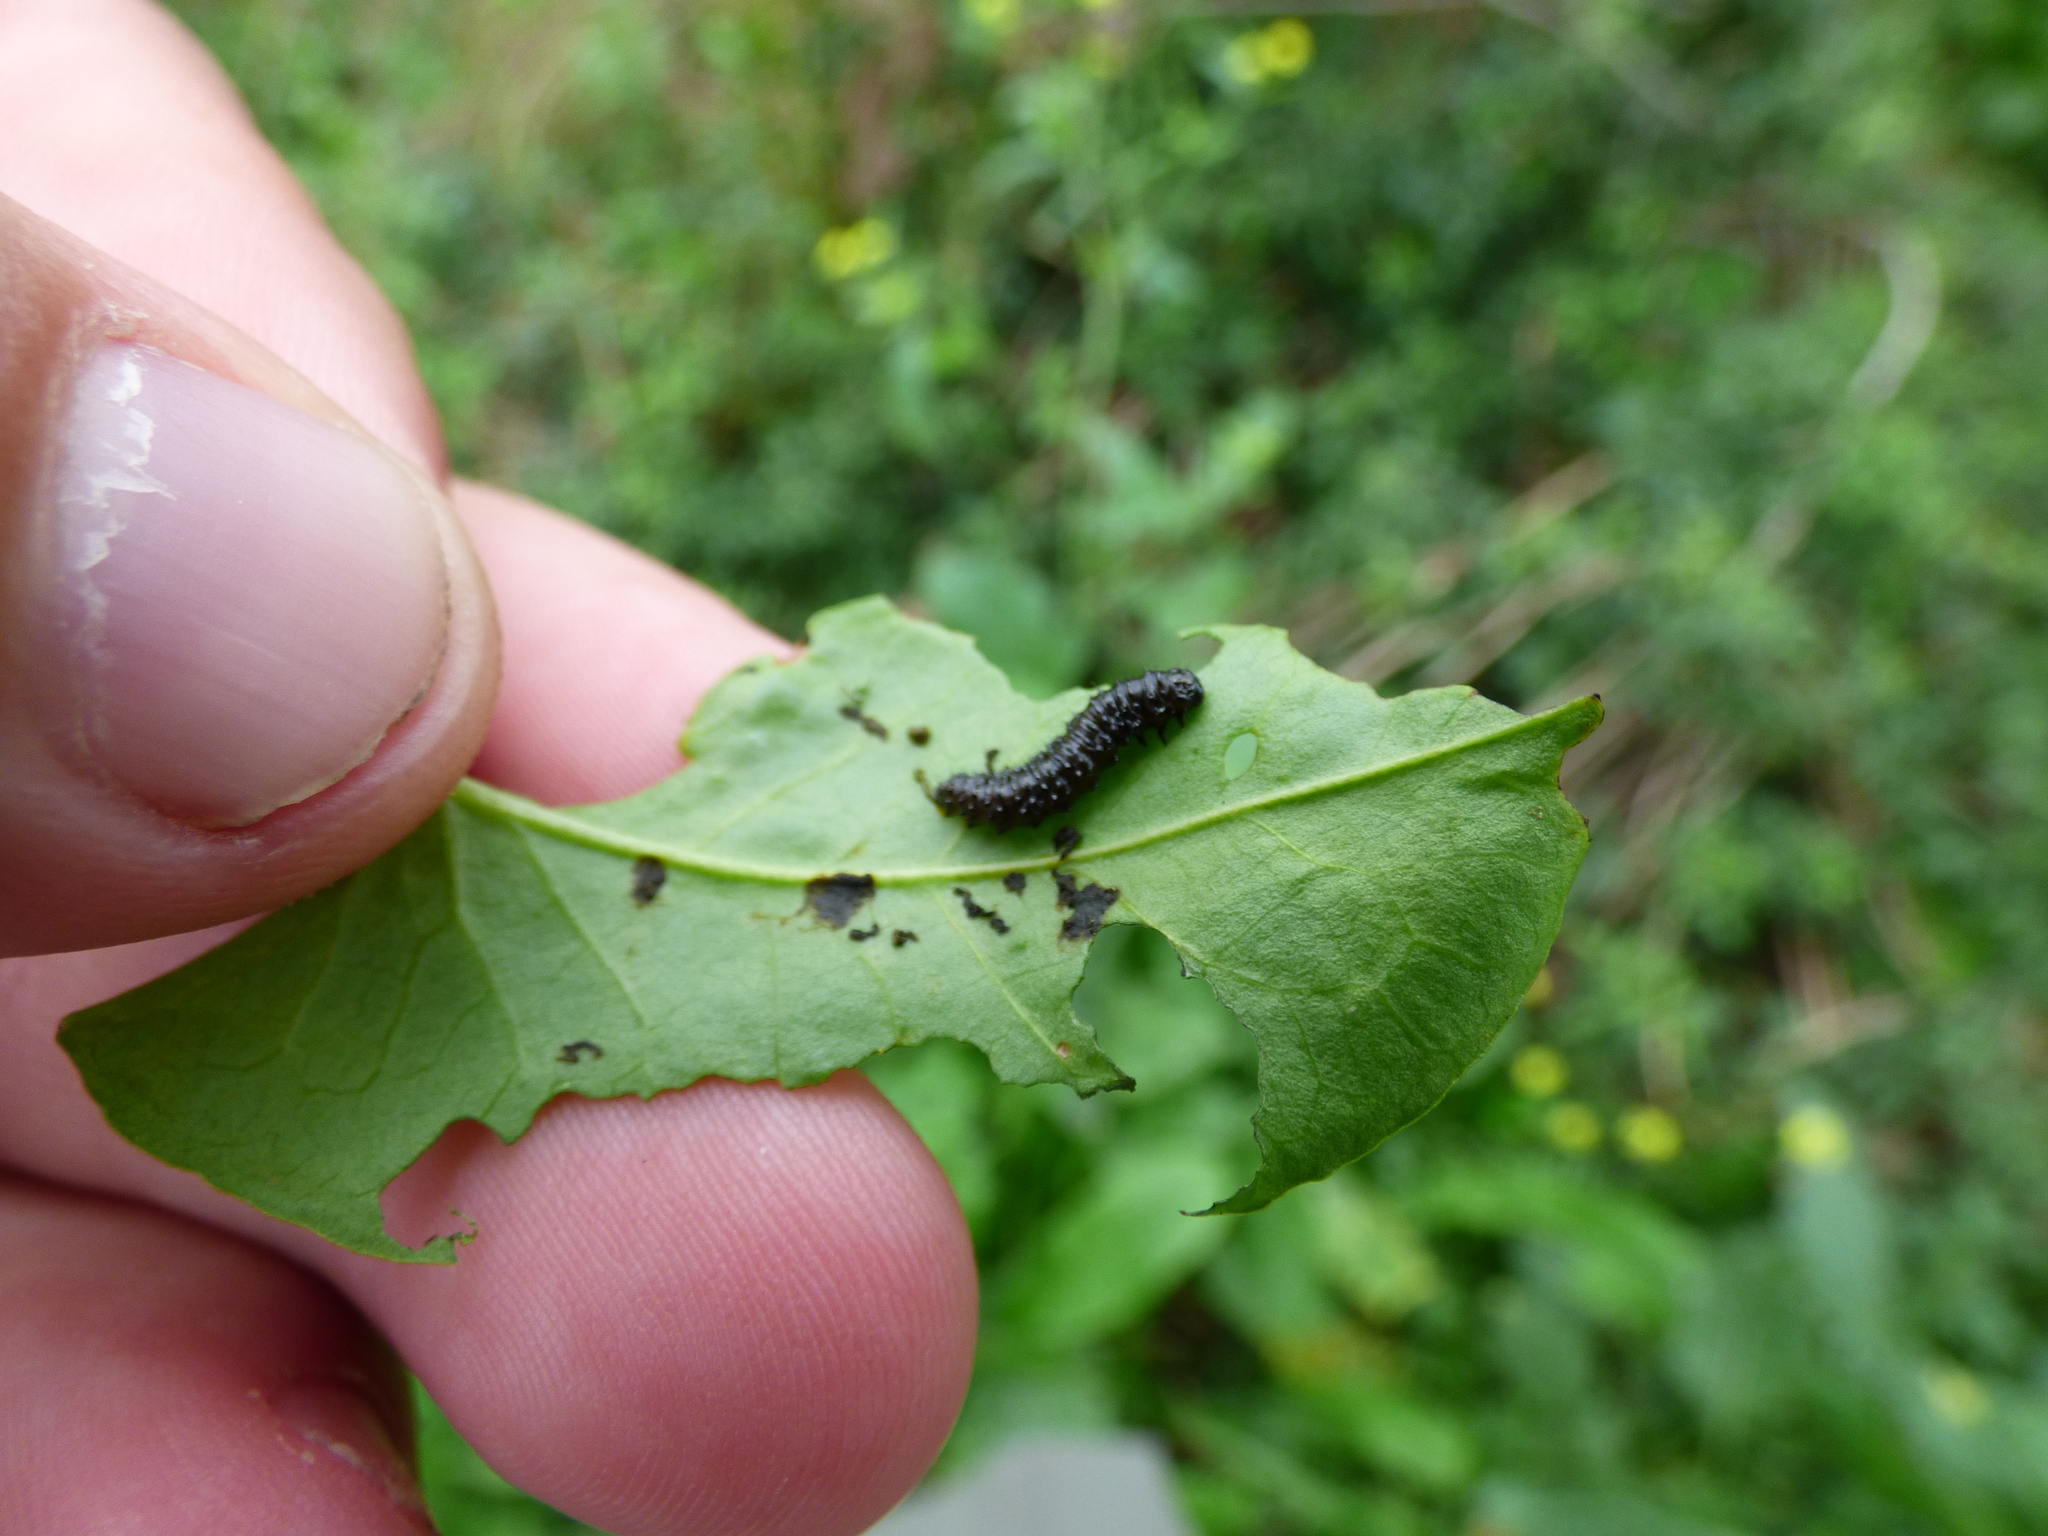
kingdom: Animalia
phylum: Arthropoda
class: Insecta
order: Coleoptera
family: Chrysomelidae
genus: Macrohaltica
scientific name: Macrohaltica
